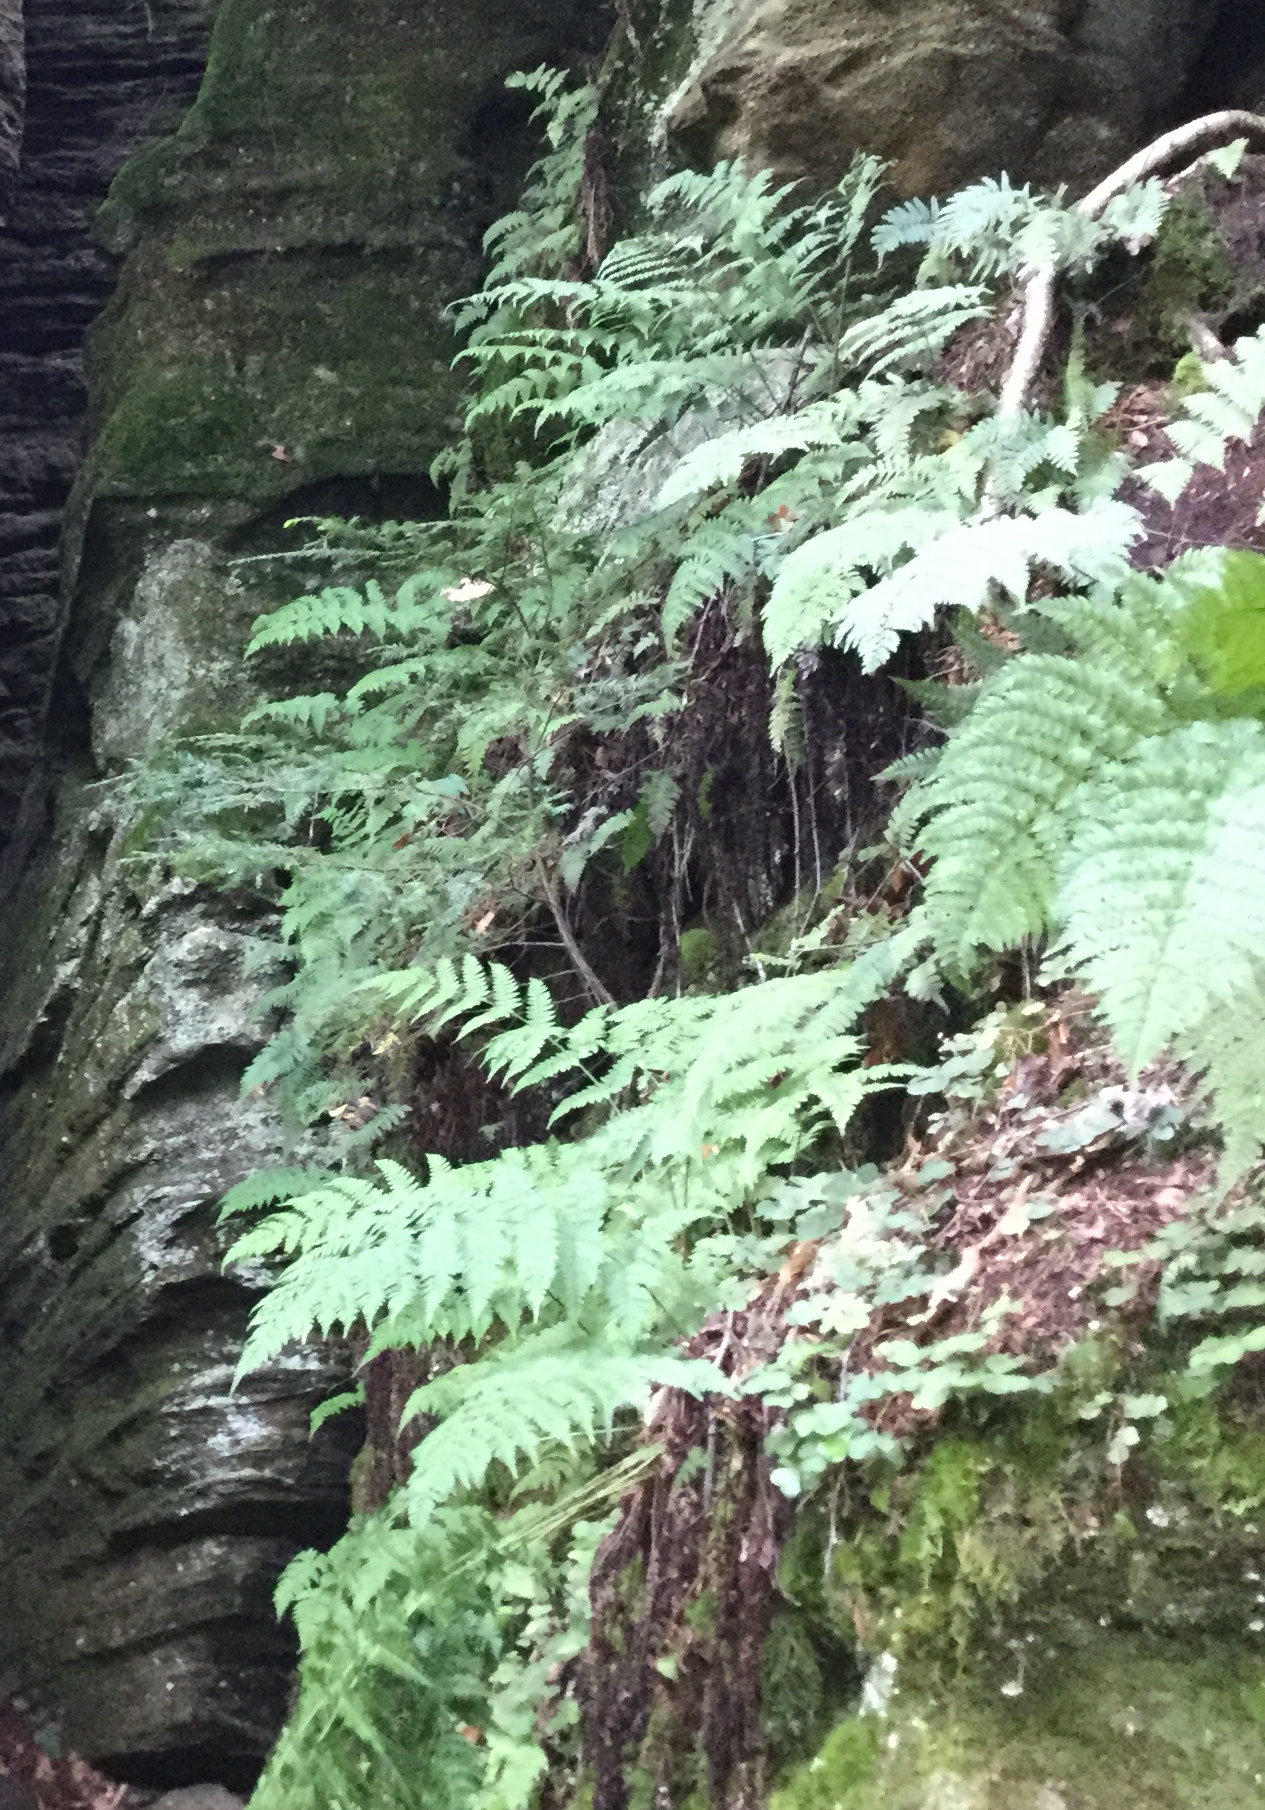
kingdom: Plantae
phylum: Tracheophyta
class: Polypodiopsida
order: Polypodiales
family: Dryopteridaceae
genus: Dryopteris
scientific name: Dryopteris intermedia
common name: Evergreen wood fern
